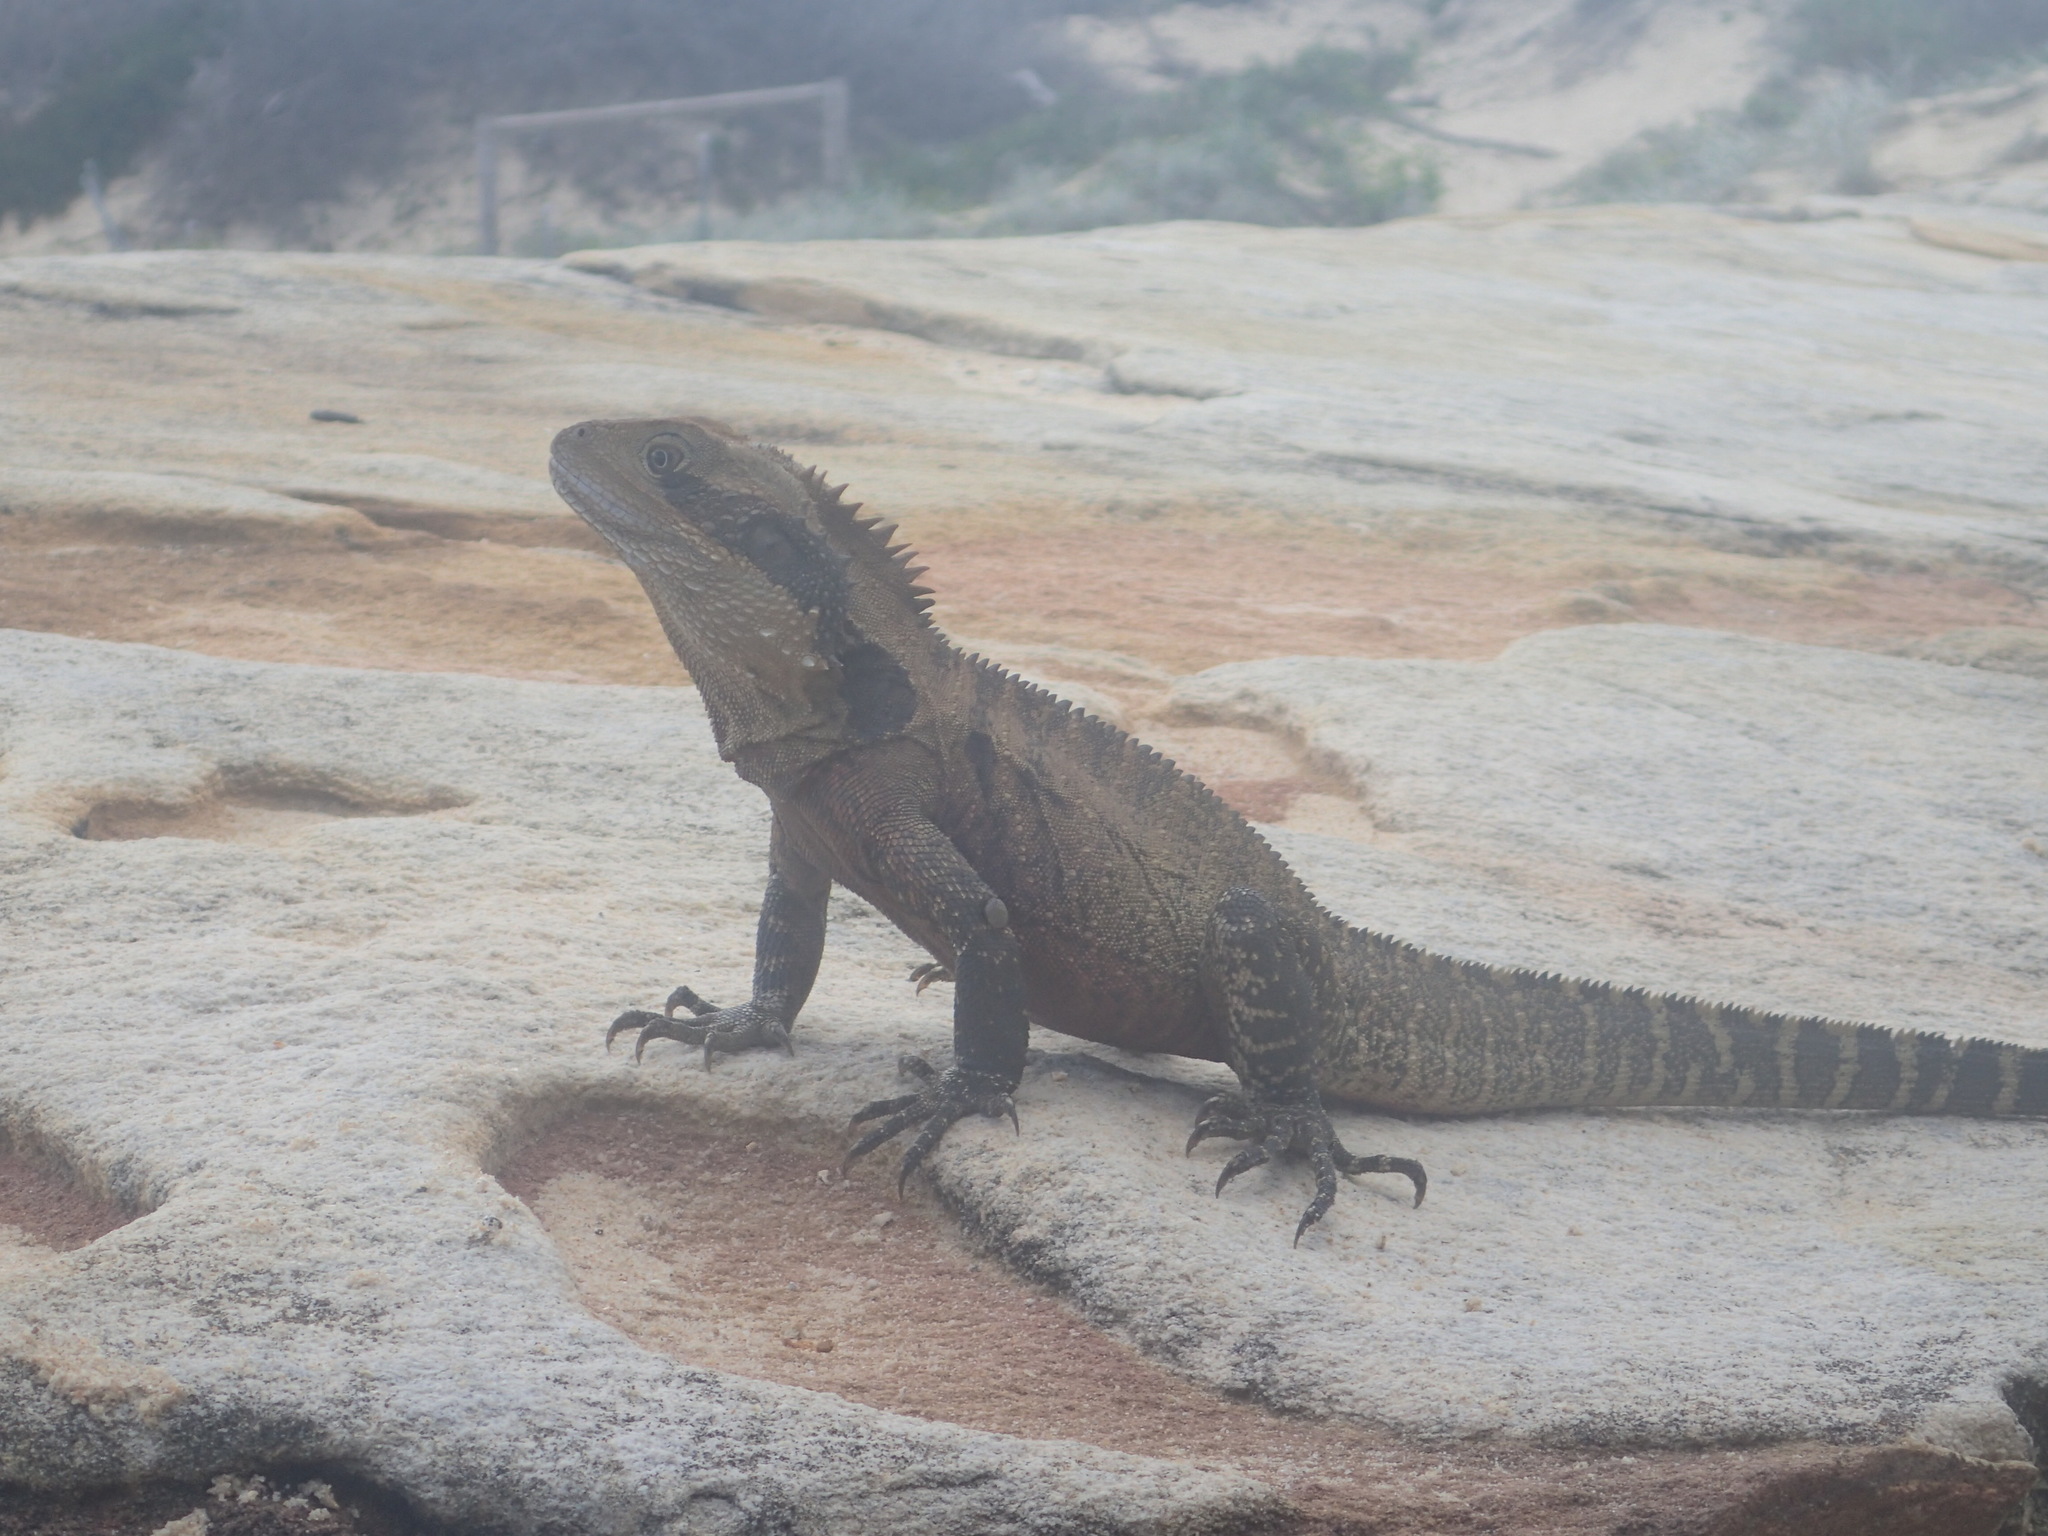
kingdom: Animalia
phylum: Chordata
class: Squamata
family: Agamidae
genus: Intellagama
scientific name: Intellagama lesueurii
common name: Eastern water dragon
